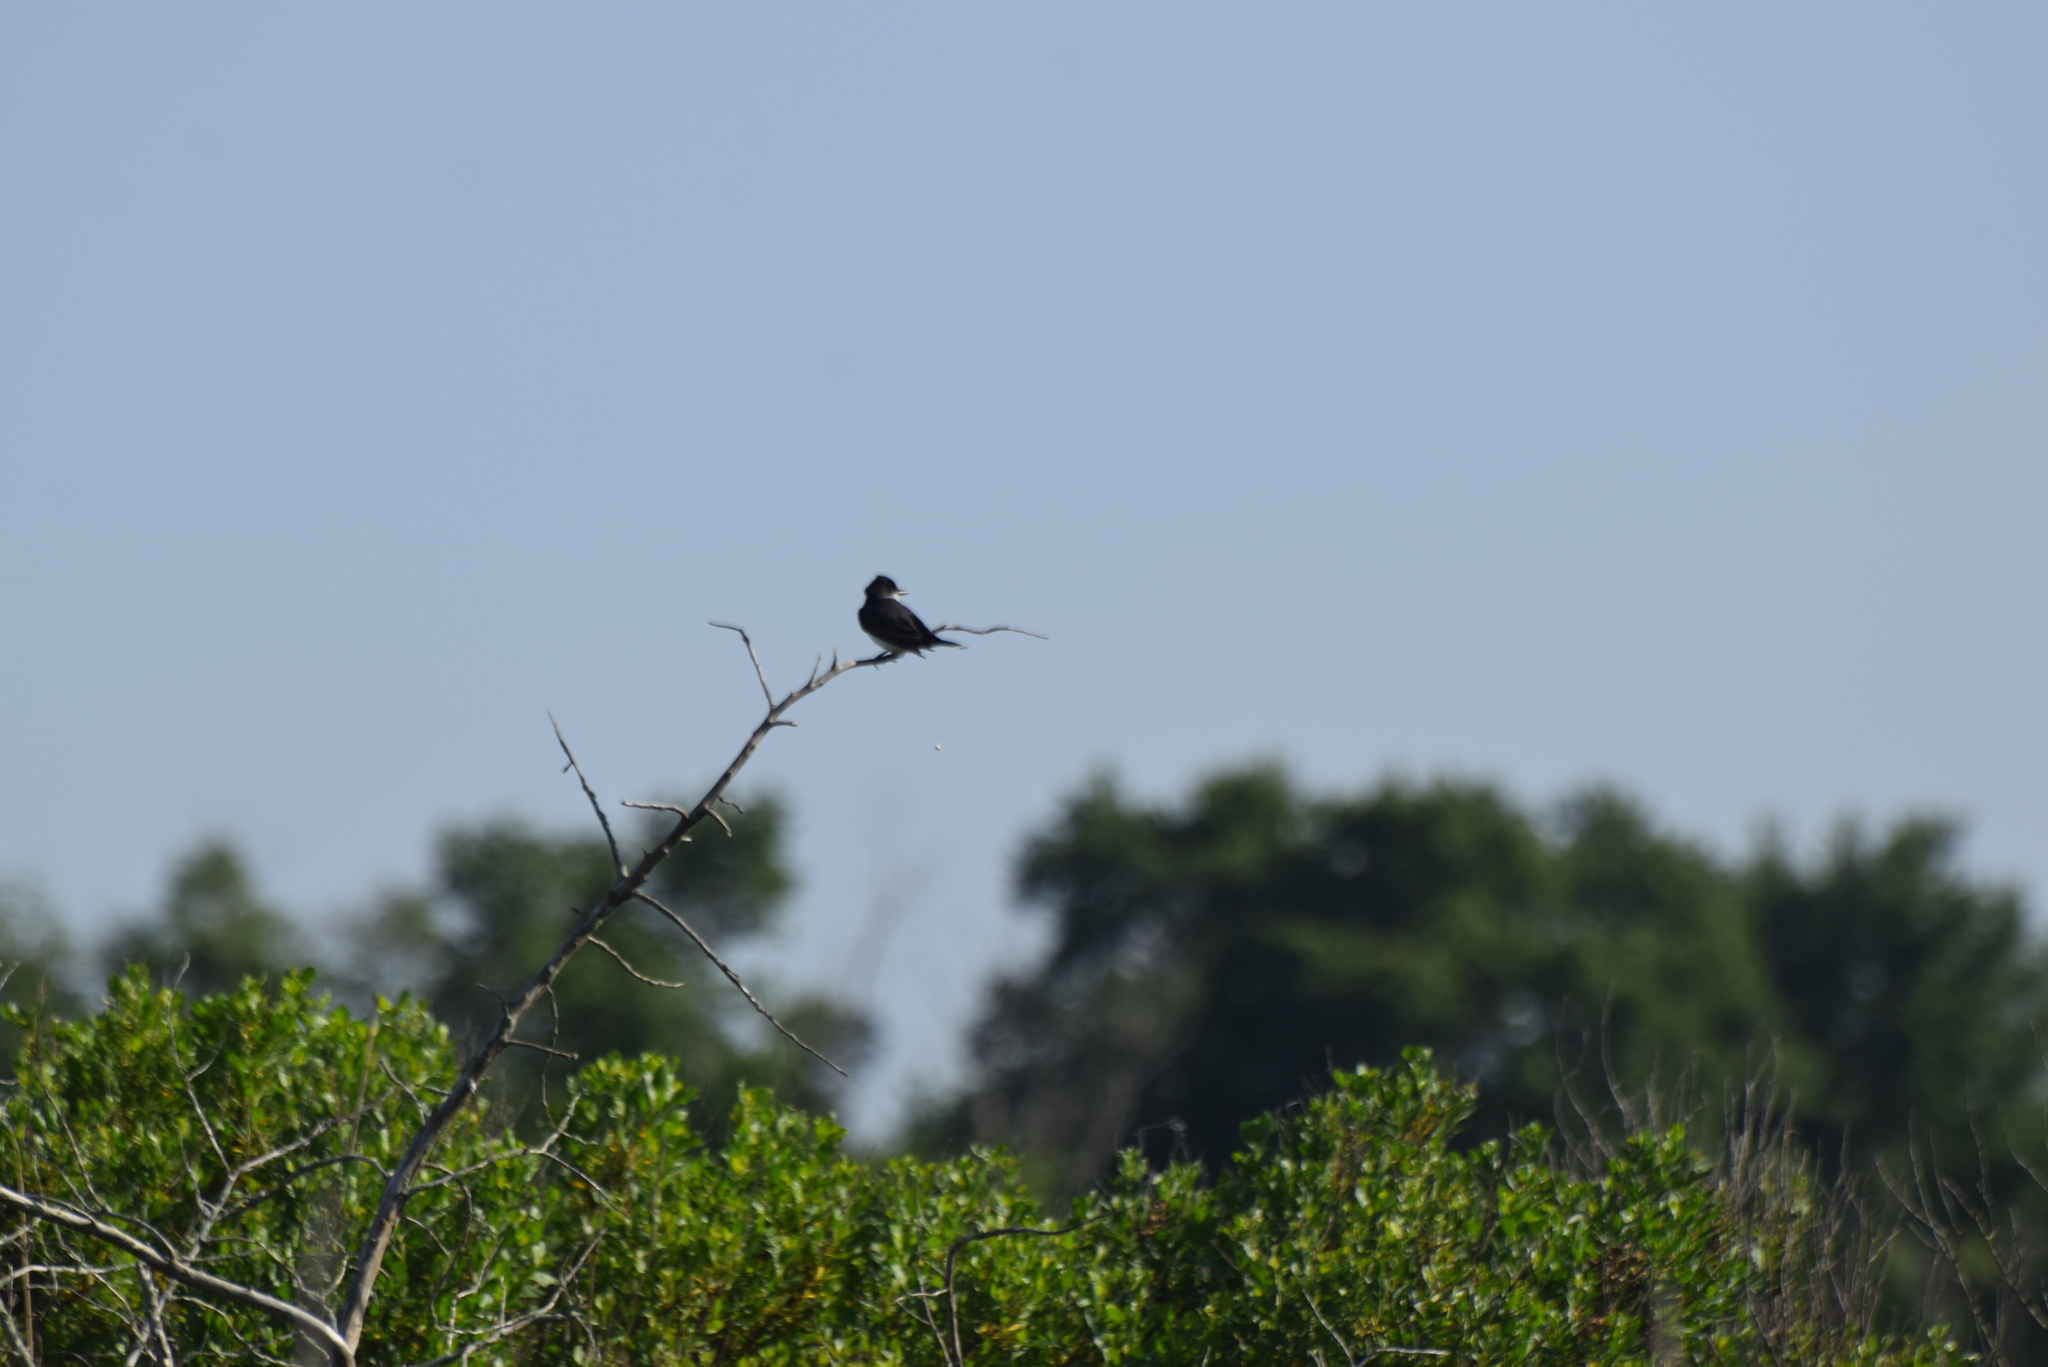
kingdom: Animalia
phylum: Chordata
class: Aves
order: Passeriformes
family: Tyrannidae
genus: Tyrannus
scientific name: Tyrannus tyrannus
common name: Eastern kingbird
